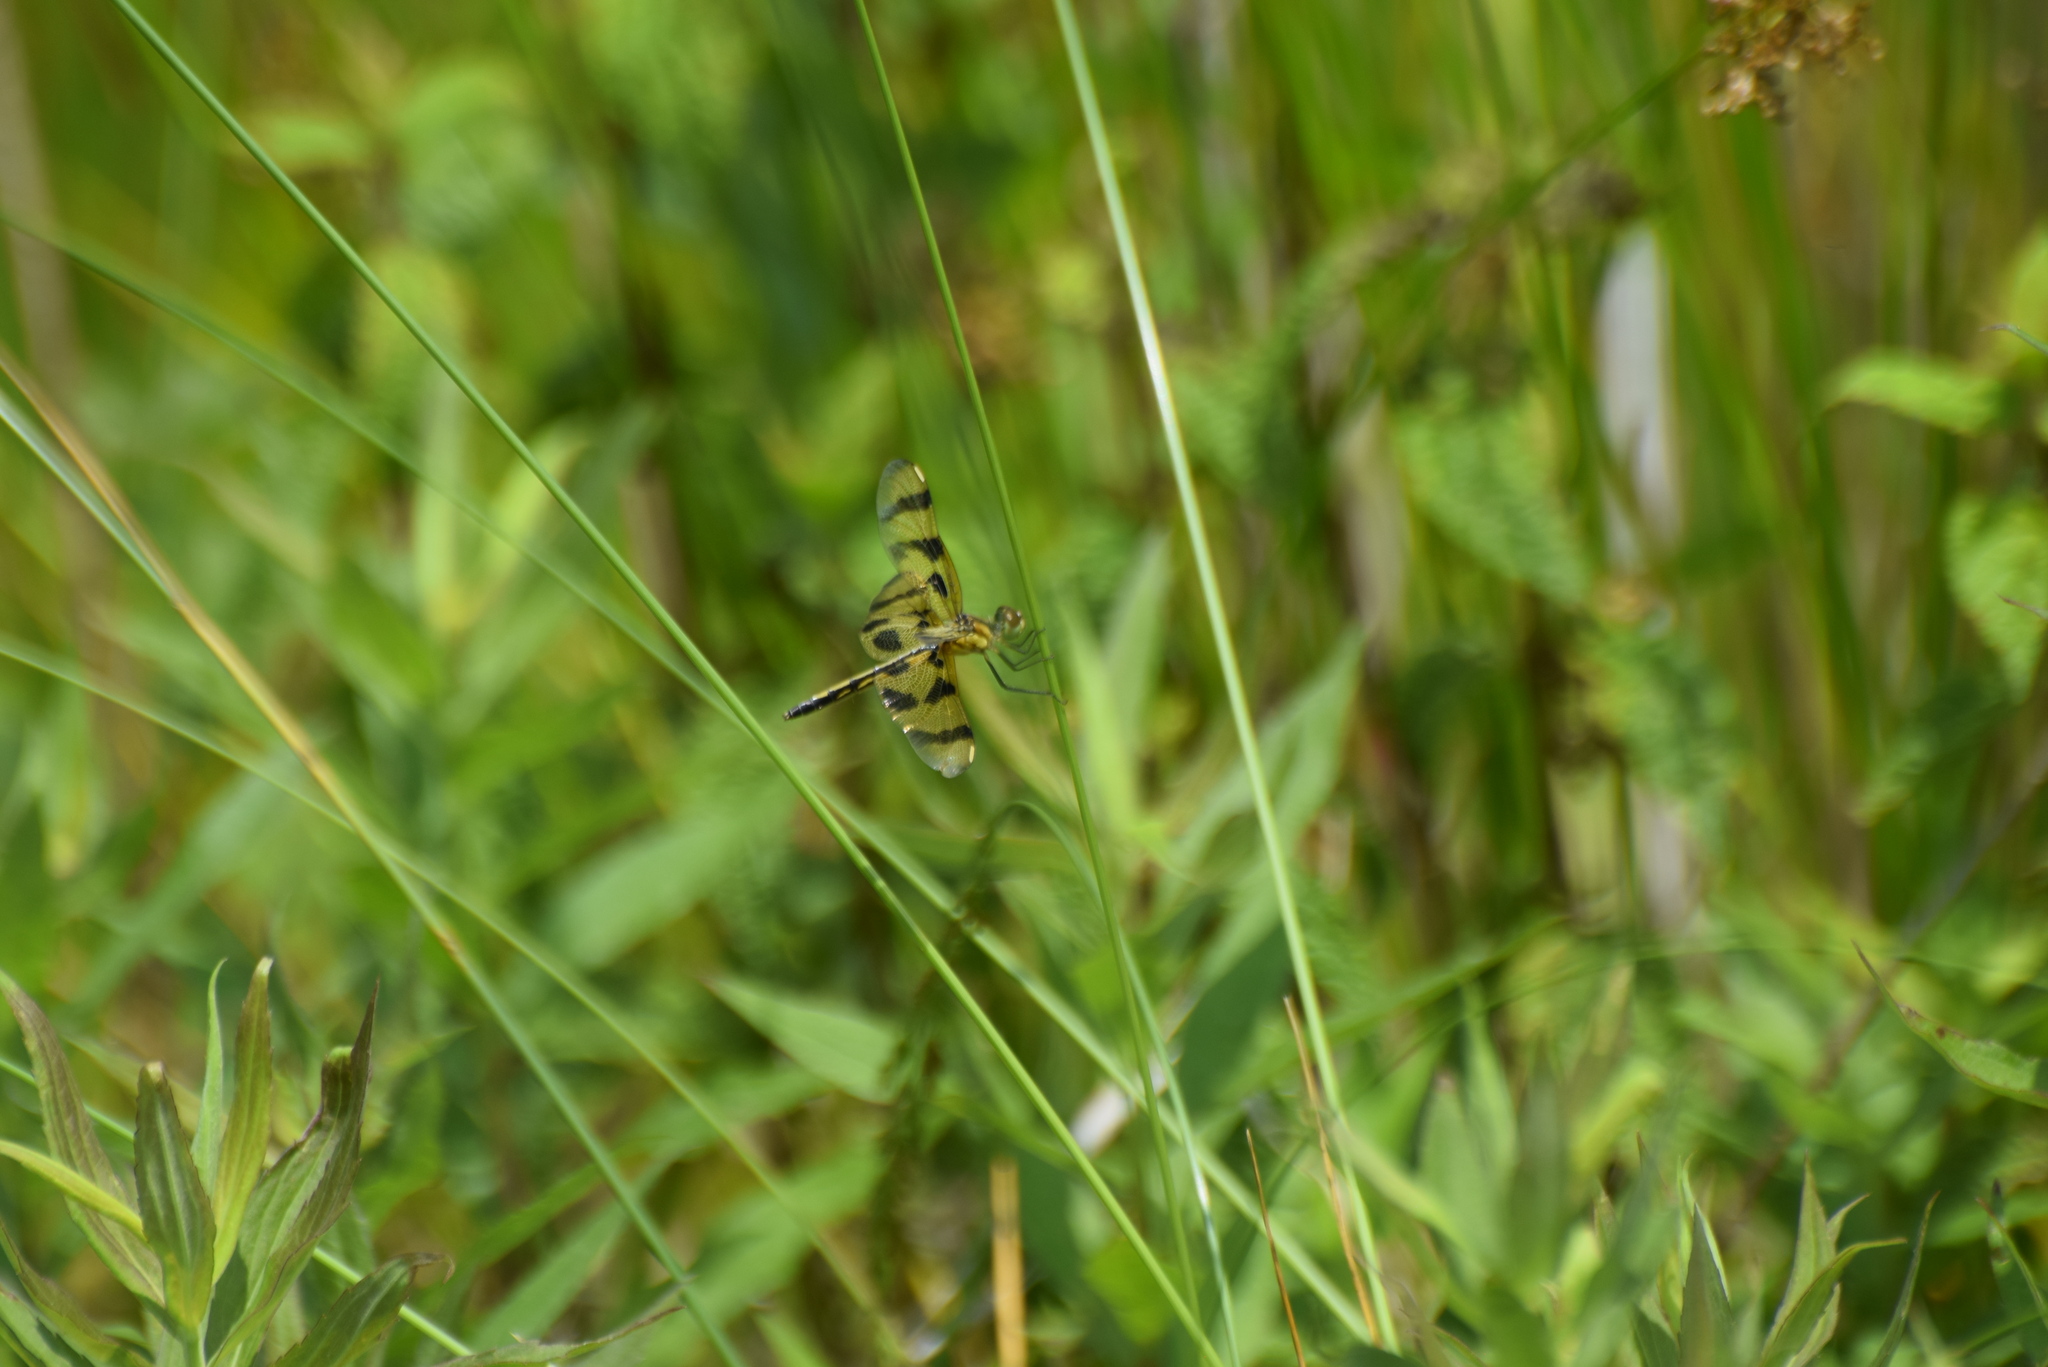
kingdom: Animalia
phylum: Arthropoda
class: Insecta
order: Odonata
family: Libellulidae
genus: Celithemis
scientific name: Celithemis eponina
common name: Halloween pennant
